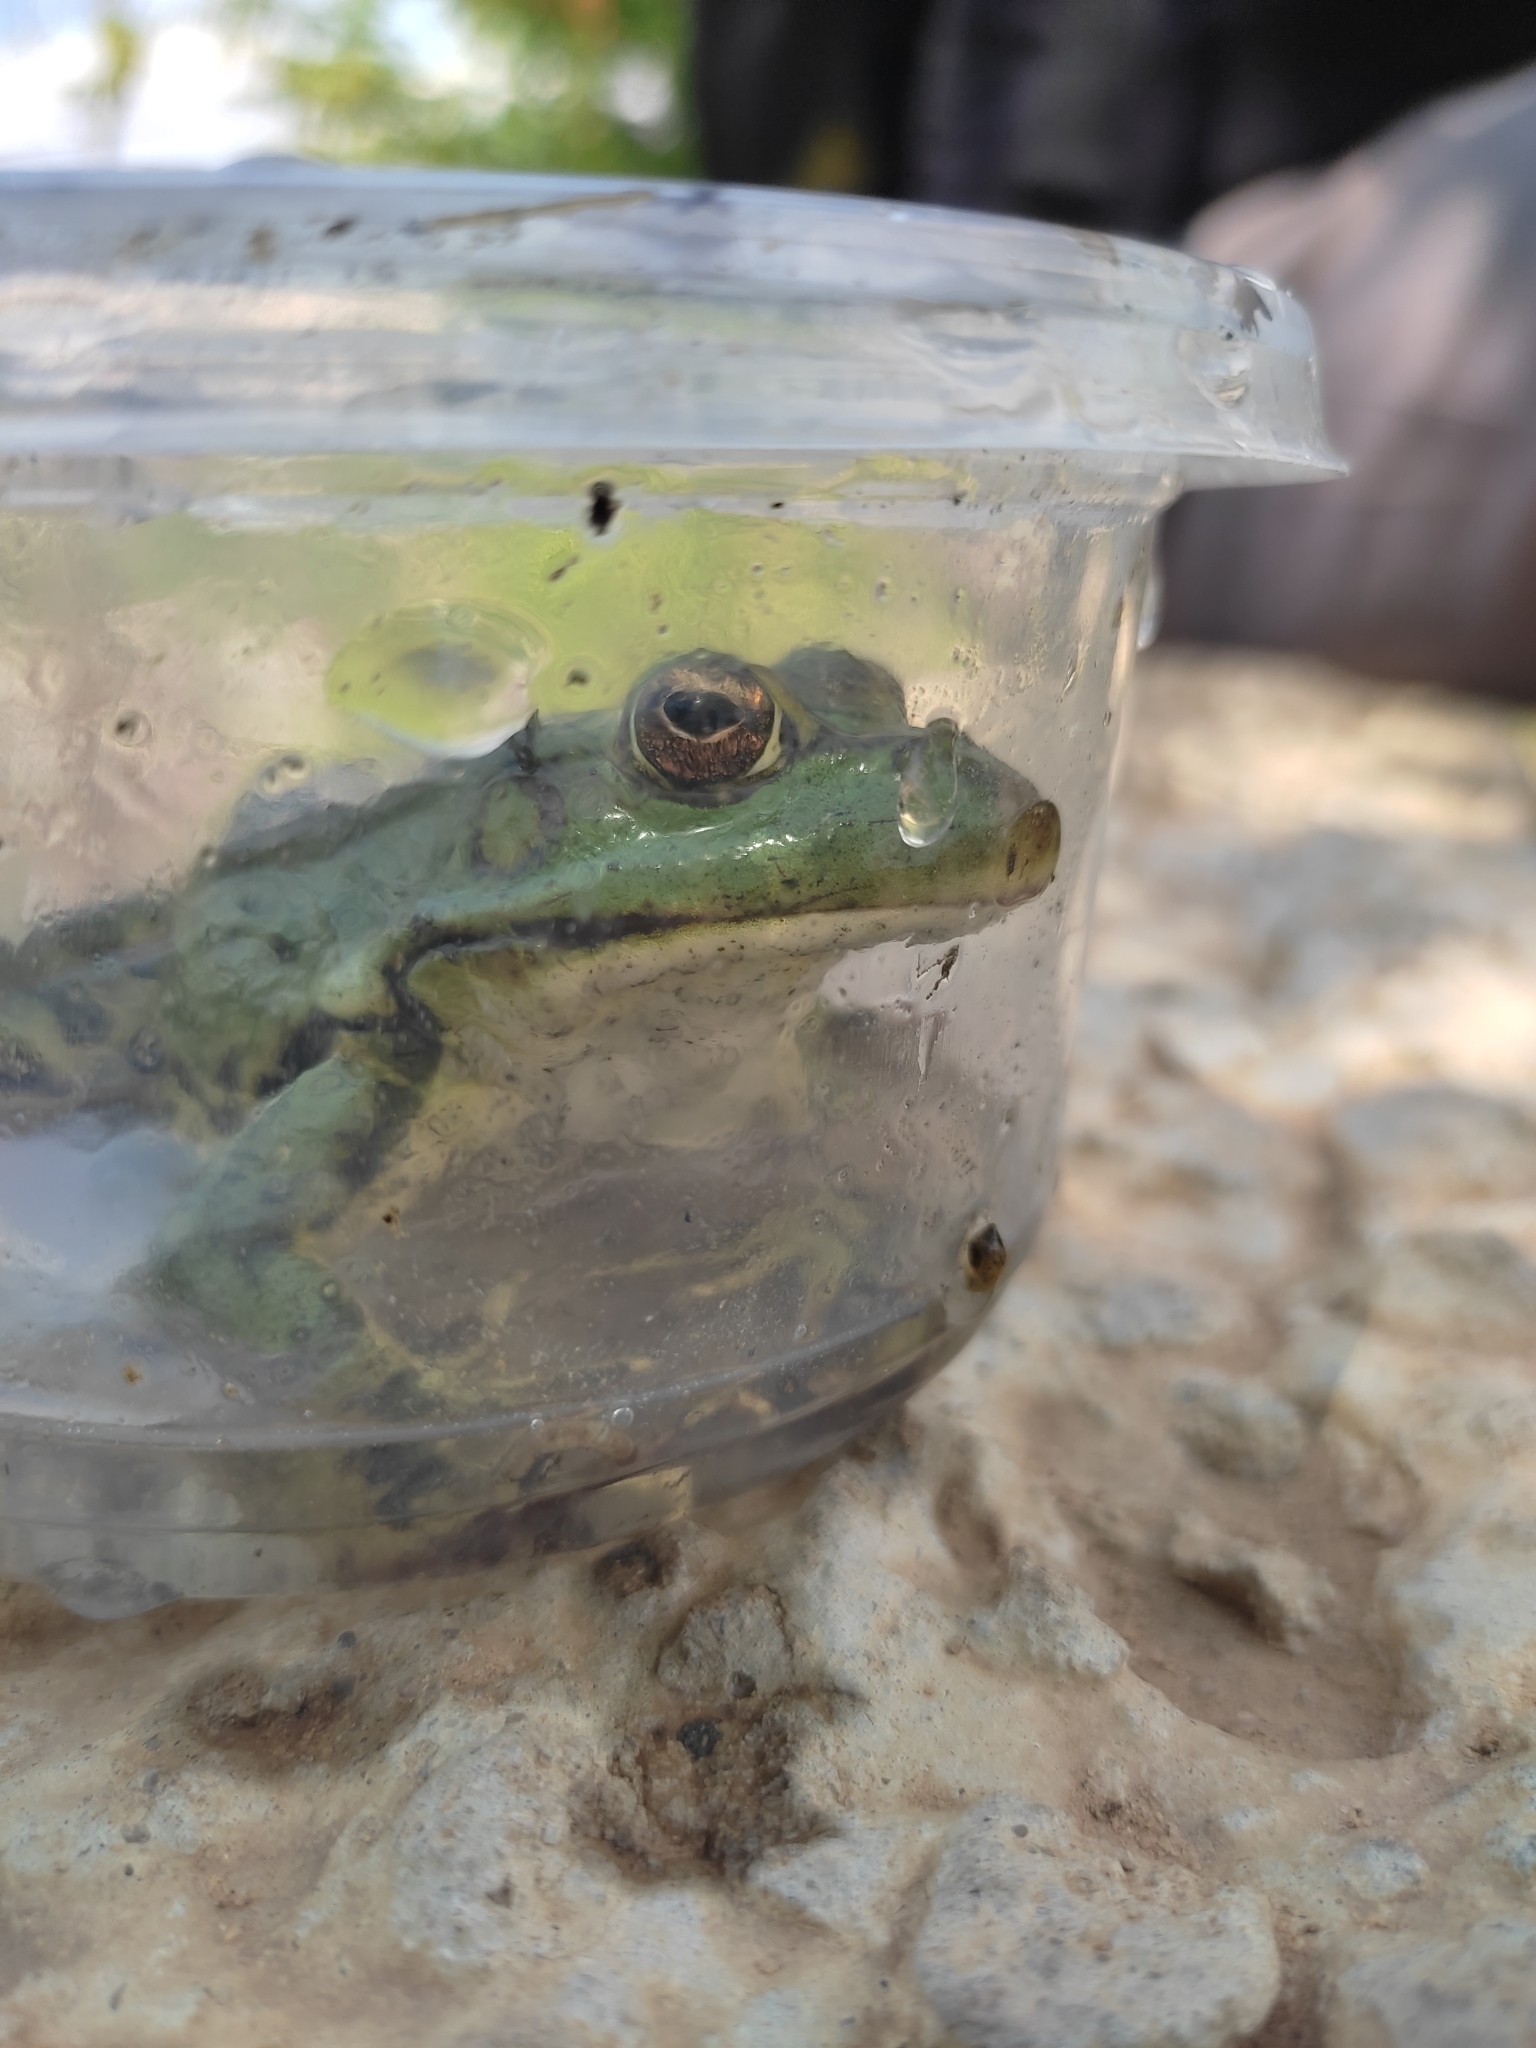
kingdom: Animalia
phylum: Chordata
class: Amphibia
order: Anura
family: Ranidae
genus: Pelophylax
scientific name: Pelophylax ridibundus
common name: Marsh frog
